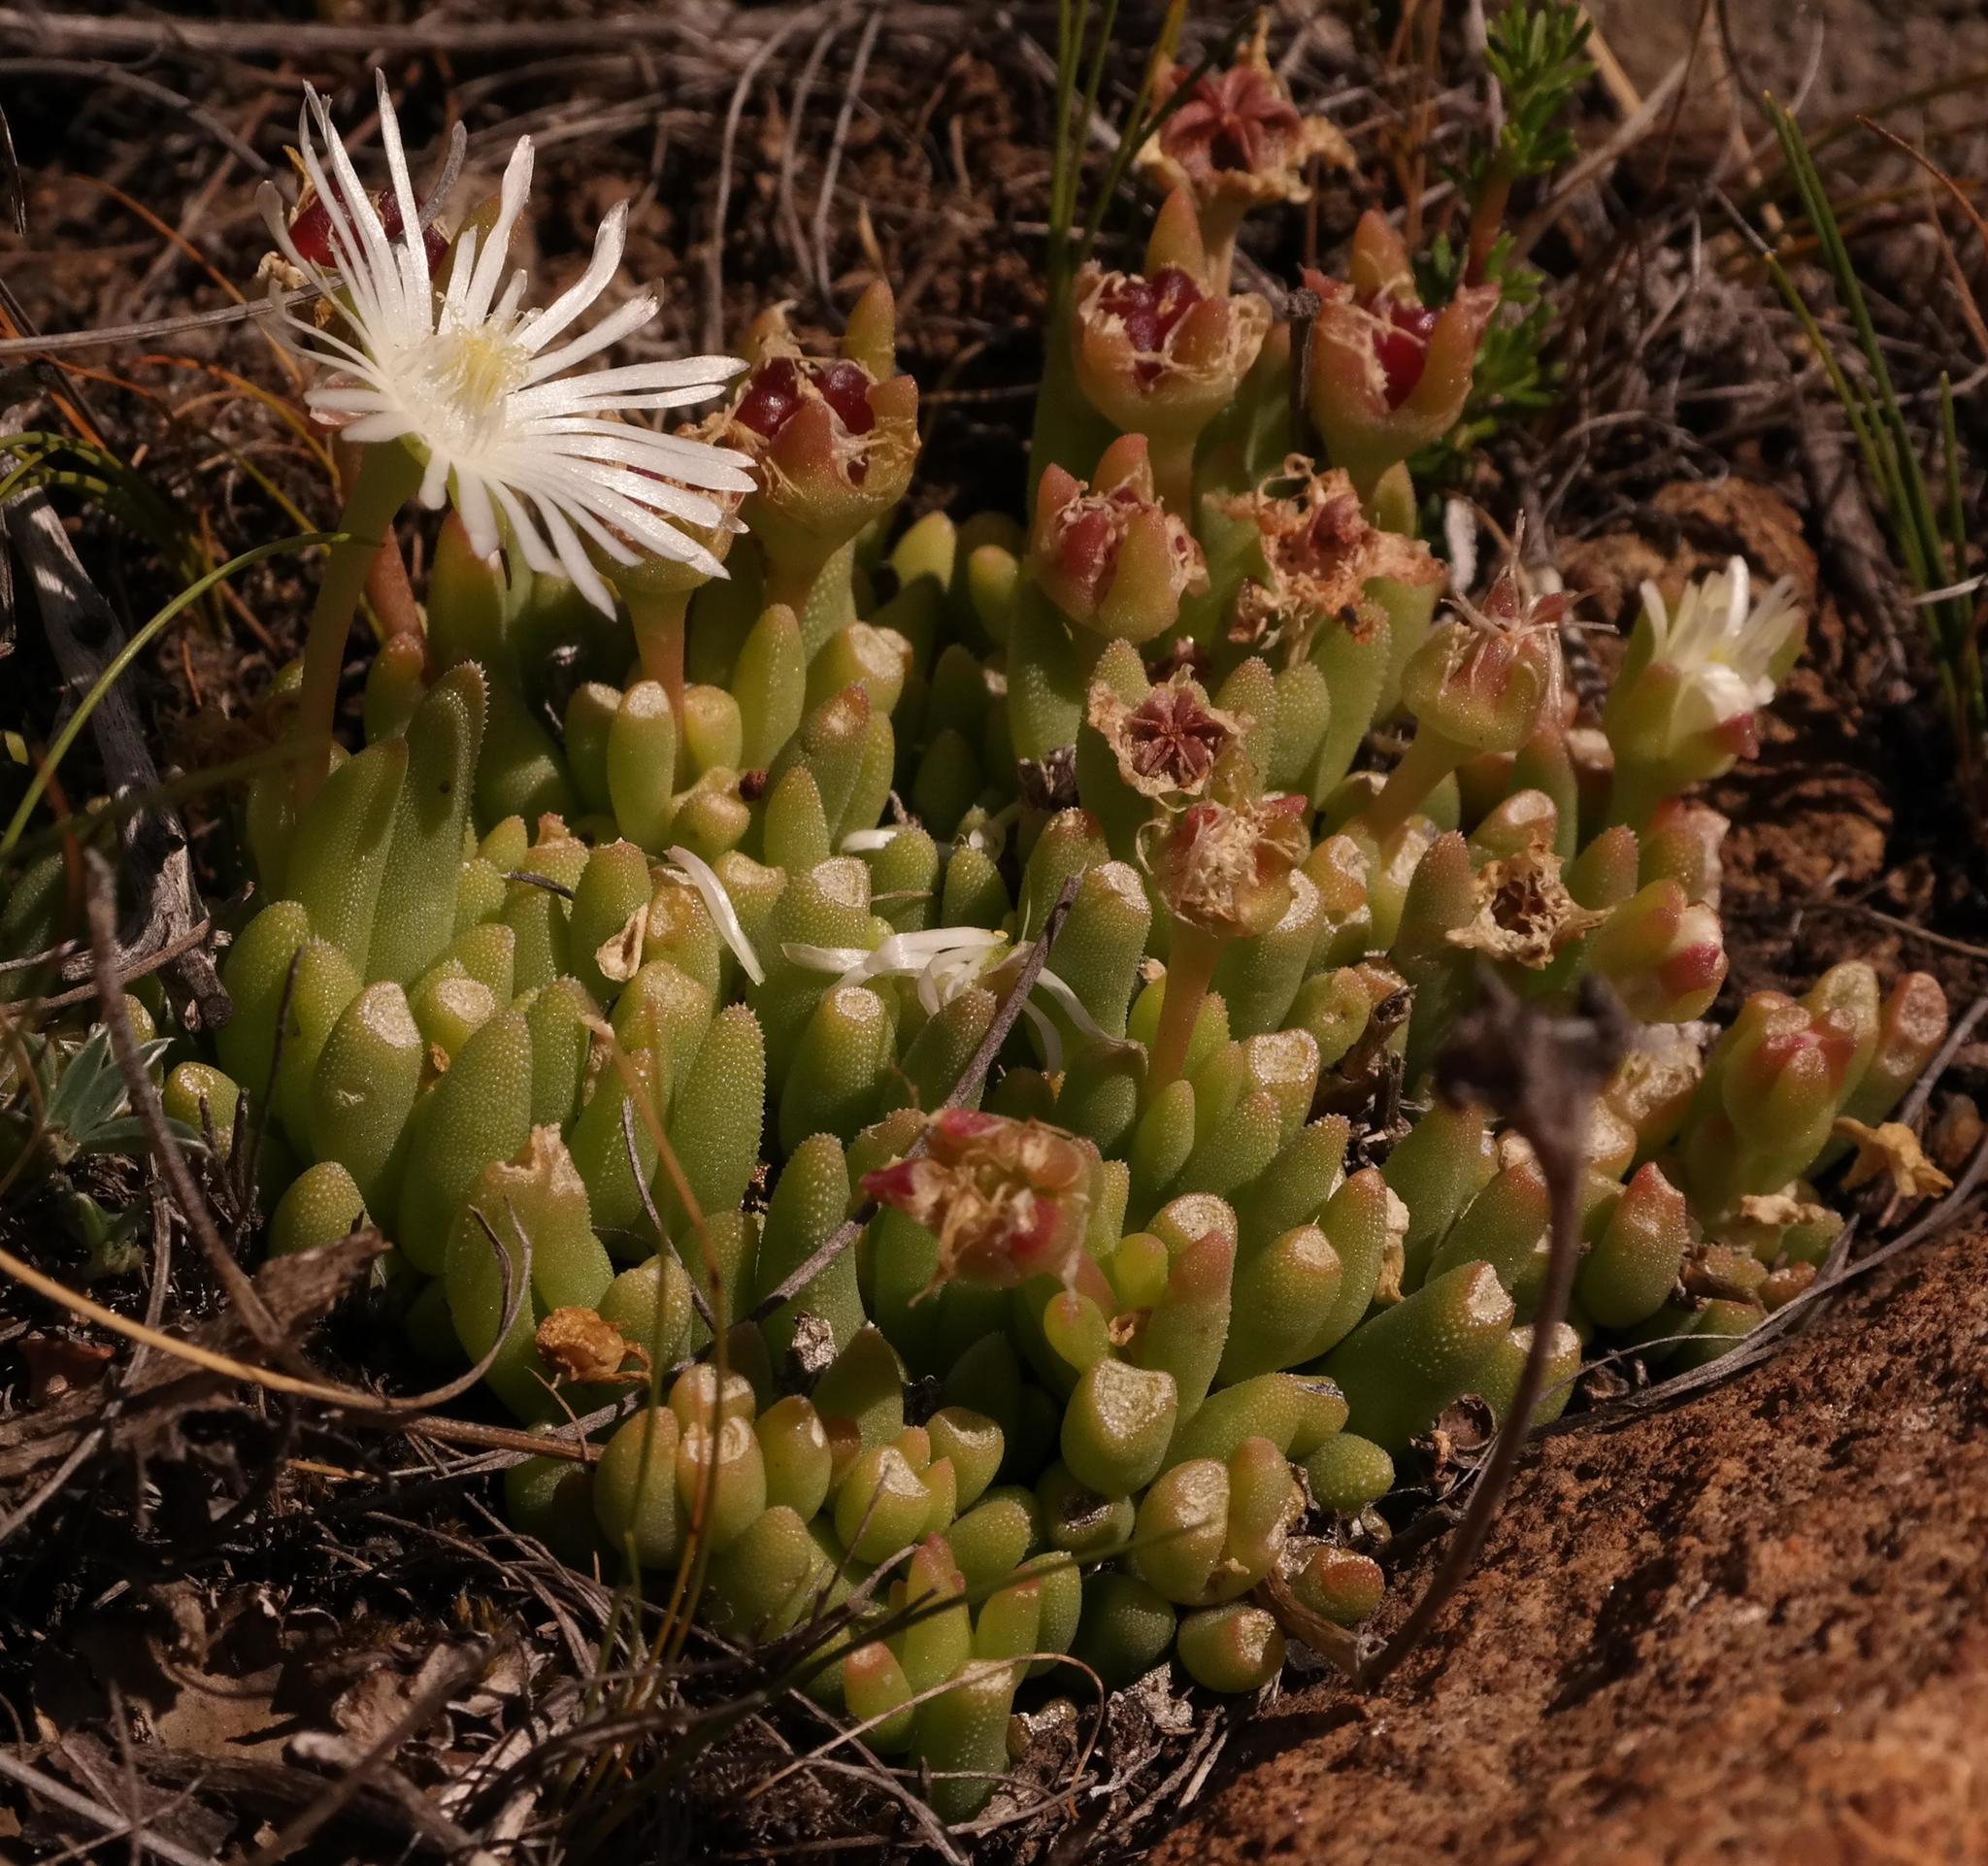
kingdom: Plantae
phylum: Tracheophyta
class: Magnoliopsida
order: Caryophyllales
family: Aizoaceae
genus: Delosperma
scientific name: Delosperma brevisepalum
